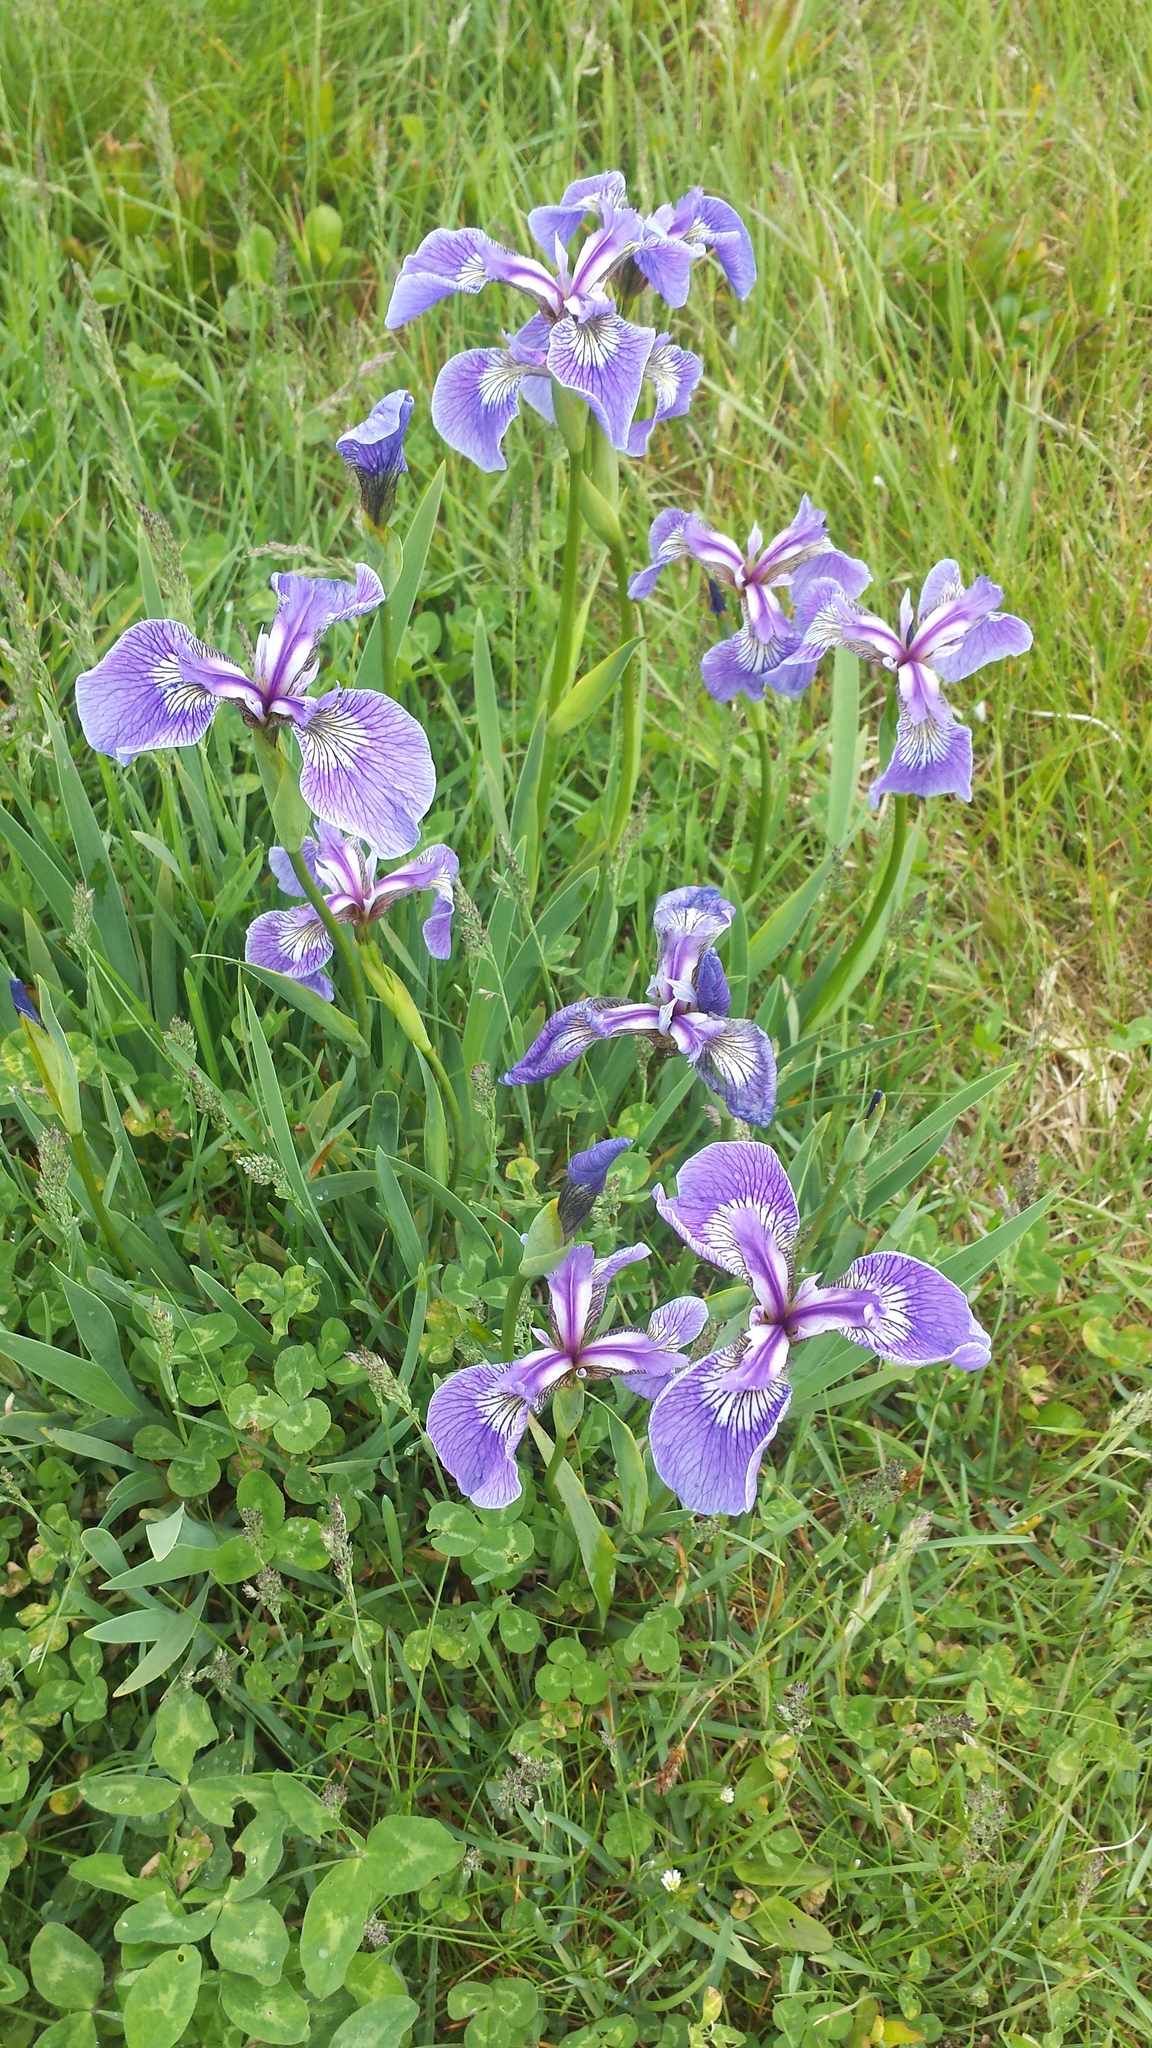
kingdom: Plantae
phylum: Tracheophyta
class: Liliopsida
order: Asparagales
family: Iridaceae
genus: Iris
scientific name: Iris hookeri
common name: Canada beach-head iris
